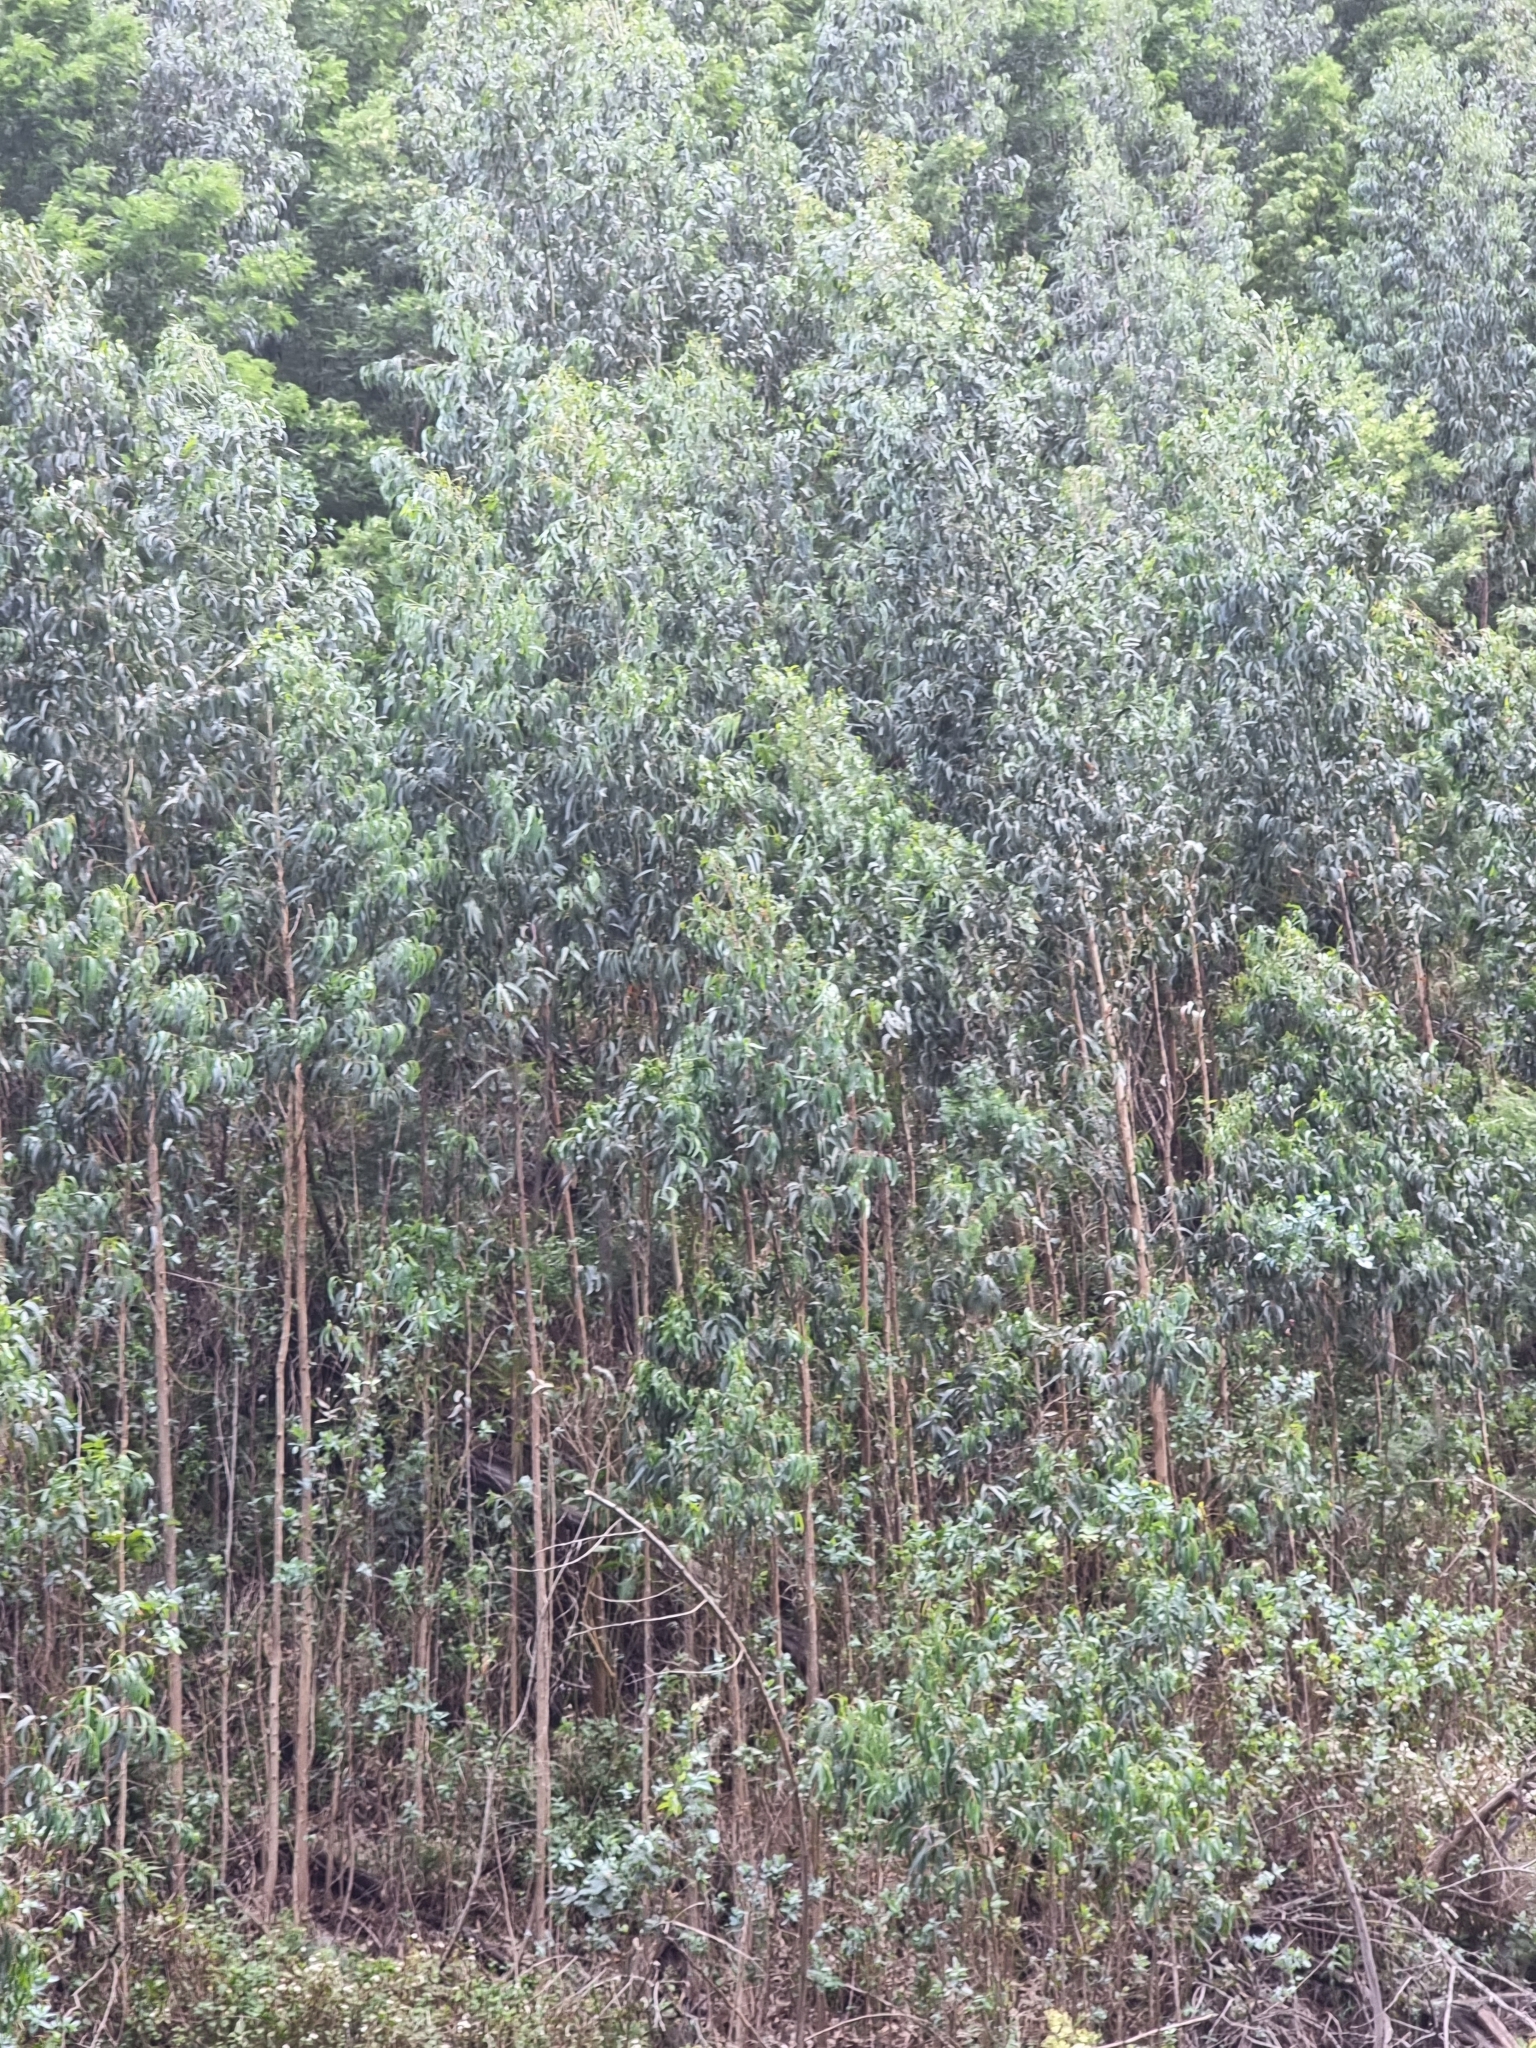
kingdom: Plantae
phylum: Tracheophyta
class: Magnoliopsida
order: Myrtales
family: Myrtaceae
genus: Eucalyptus
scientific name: Eucalyptus globulus
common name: Southern blue-gum
